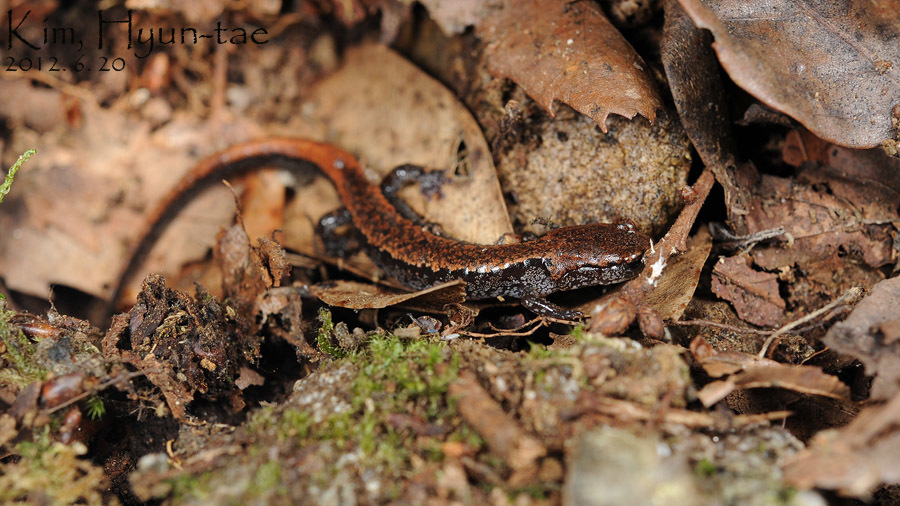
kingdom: Animalia
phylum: Chordata
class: Amphibia
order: Caudata
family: Plethodontidae
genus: Karsenia
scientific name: Karsenia koreana
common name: Korean crevice salamander
